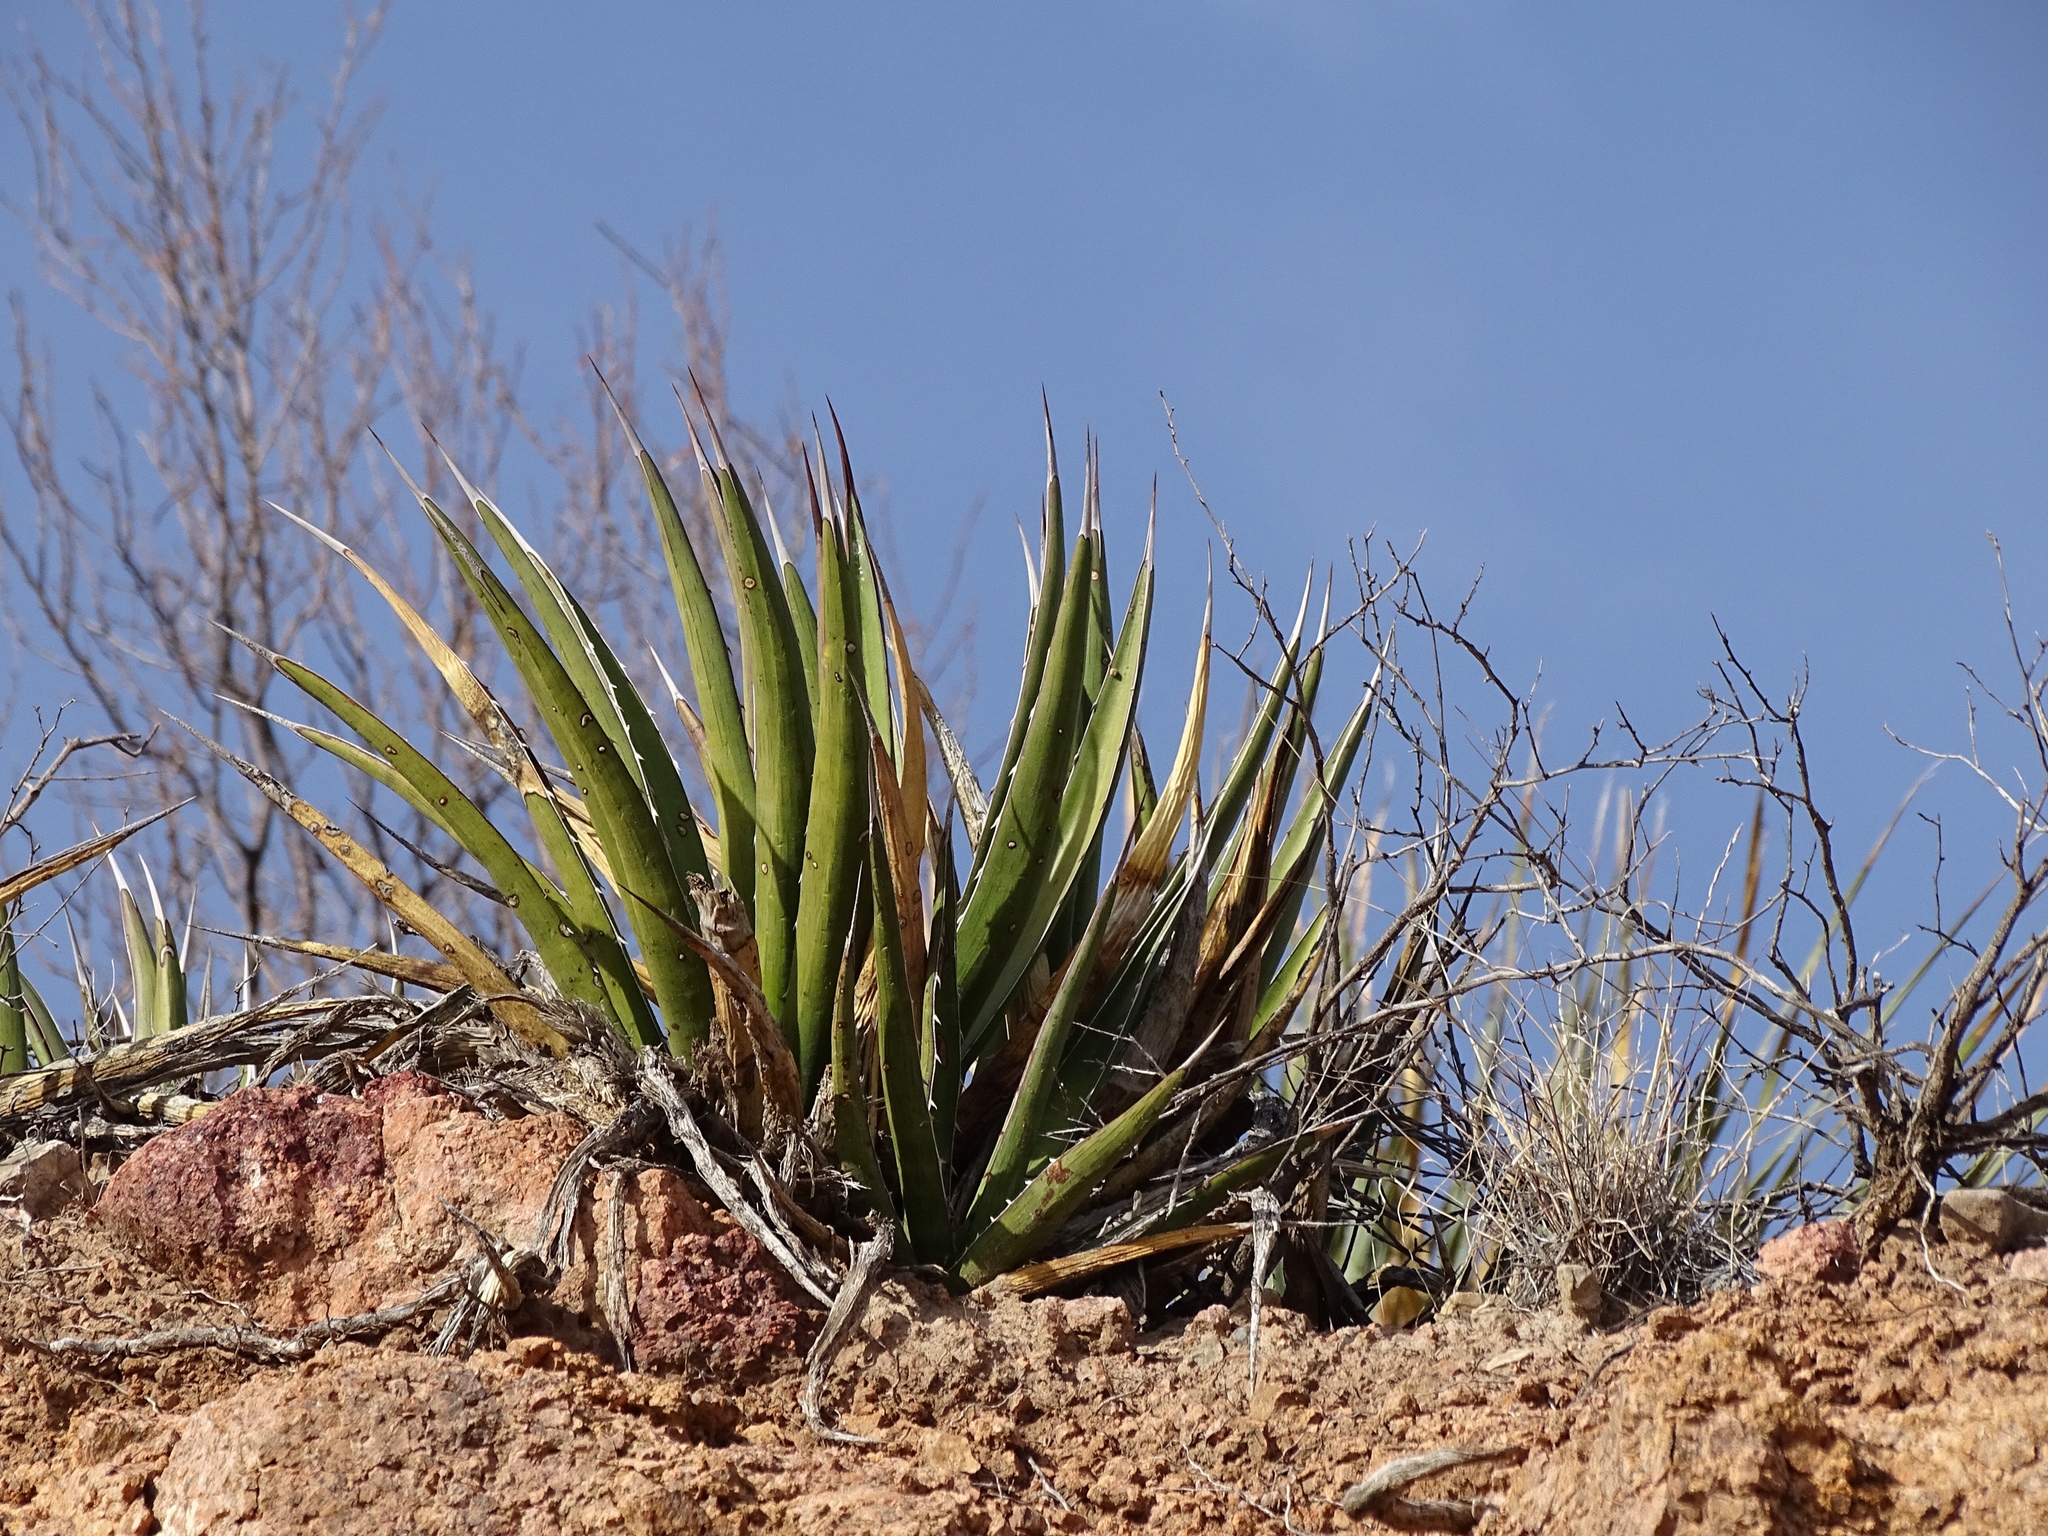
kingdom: Plantae
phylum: Tracheophyta
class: Liliopsida
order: Asparagales
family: Asparagaceae
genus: Agave
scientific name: Agave lechuguilla
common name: Lecheguilla agave
